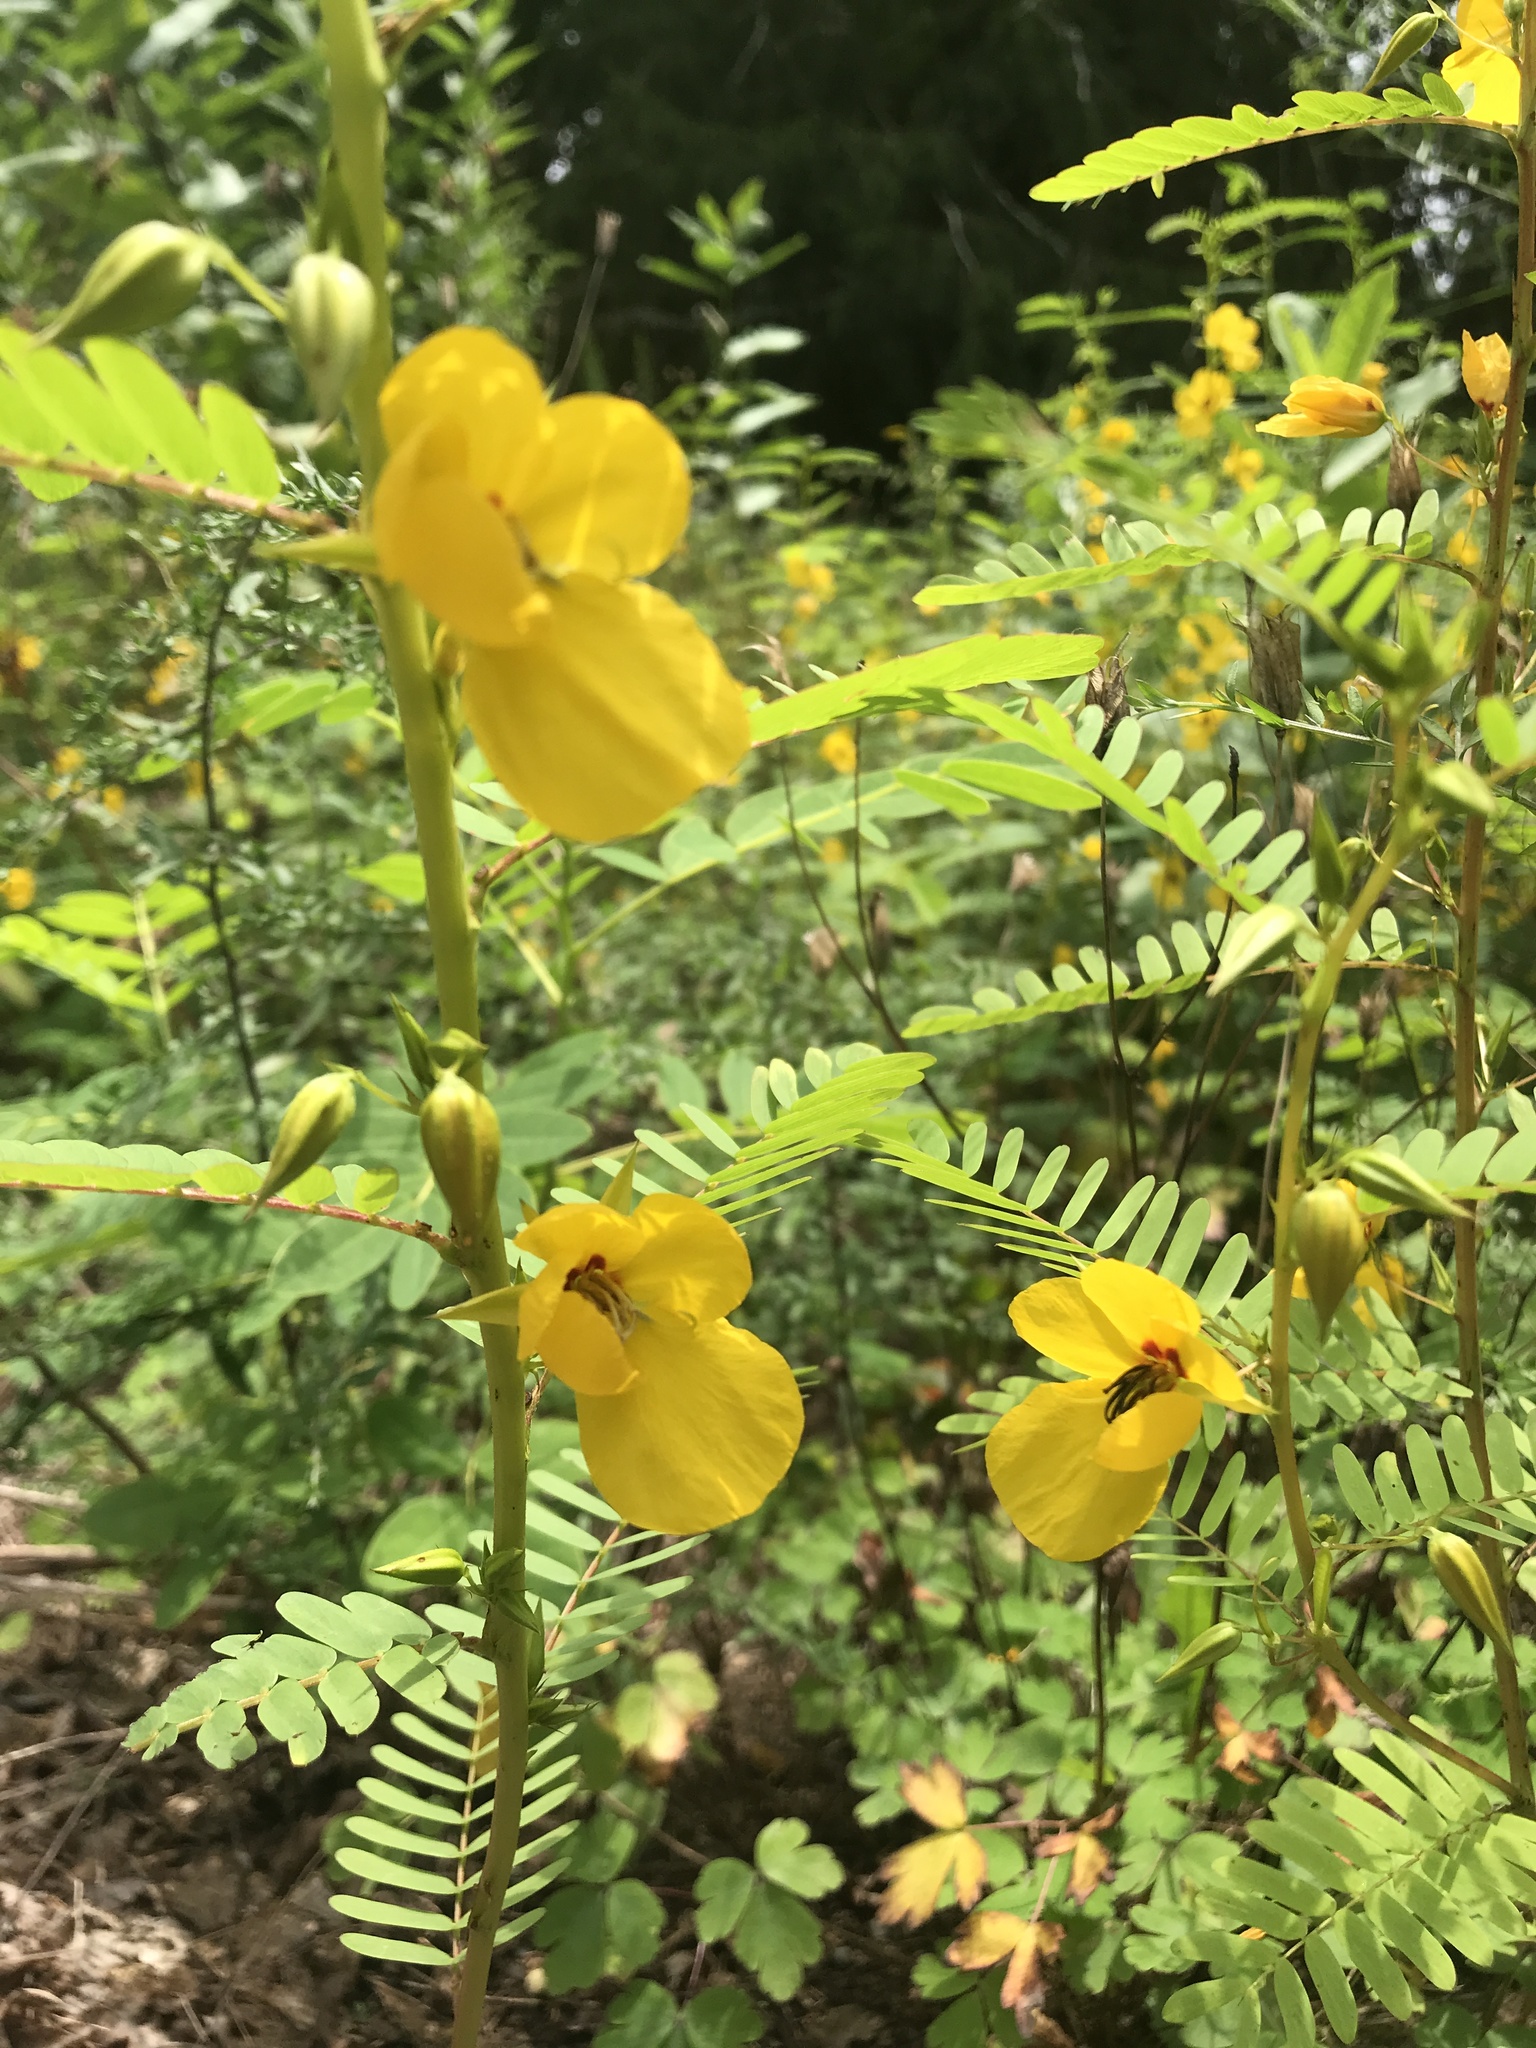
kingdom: Plantae
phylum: Tracheophyta
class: Magnoliopsida
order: Fabales
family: Fabaceae
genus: Chamaecrista
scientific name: Chamaecrista fasciculata
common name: Golden cassia
